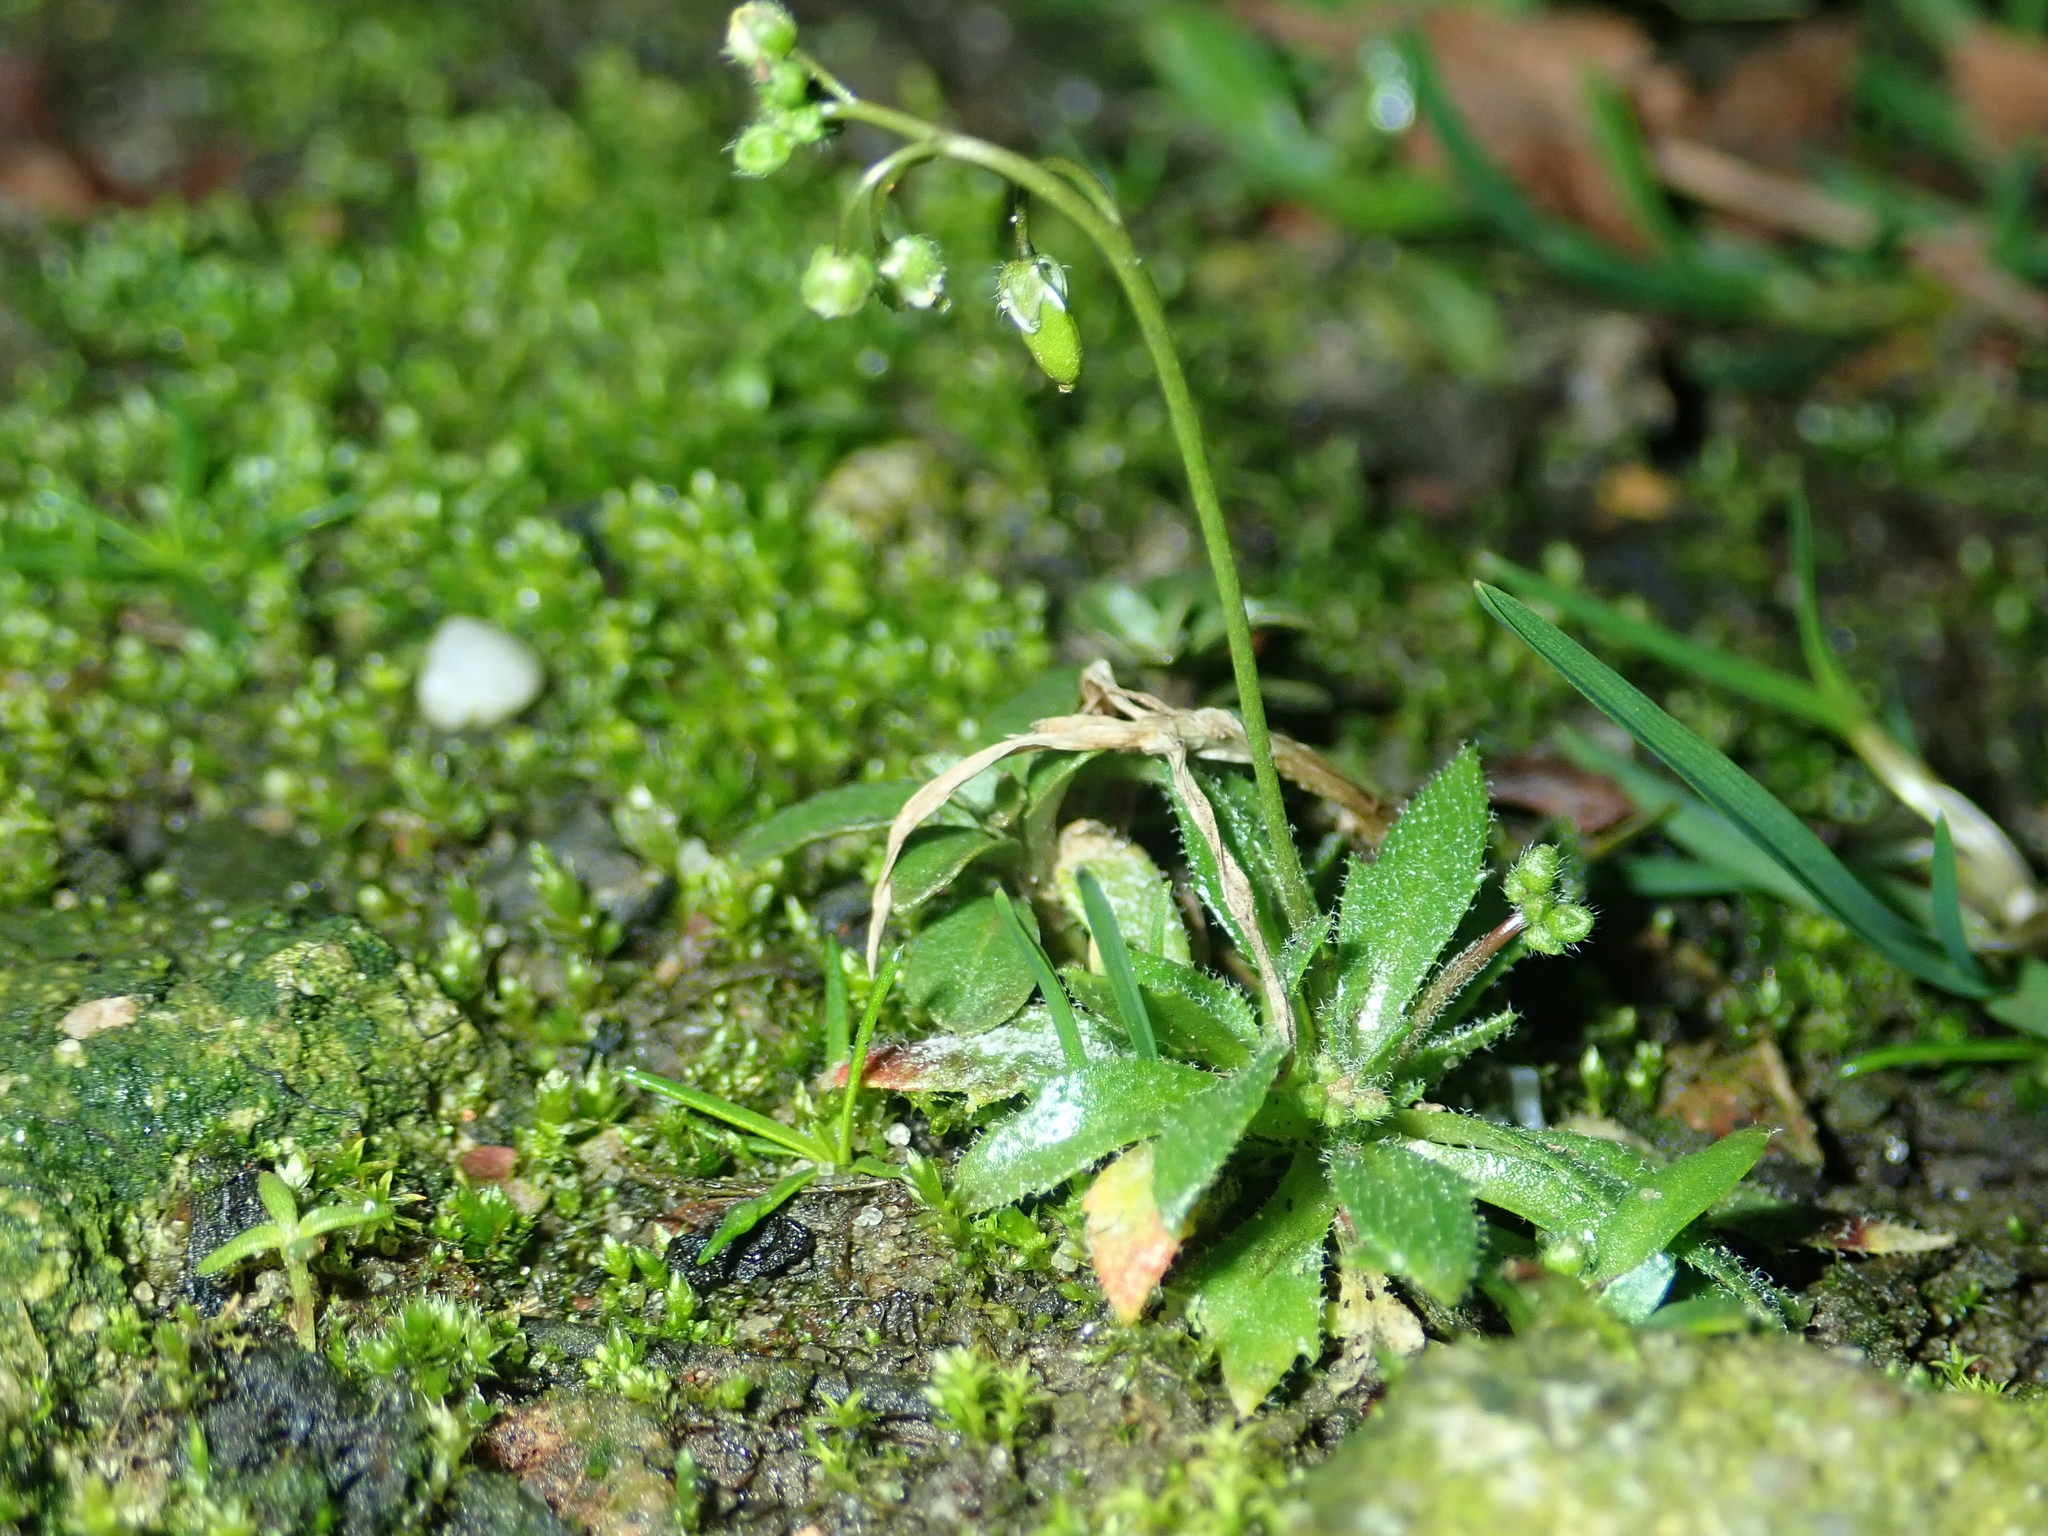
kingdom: Plantae
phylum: Tracheophyta
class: Magnoliopsida
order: Brassicales
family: Brassicaceae
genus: Draba
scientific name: Draba verna
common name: Spring draba
